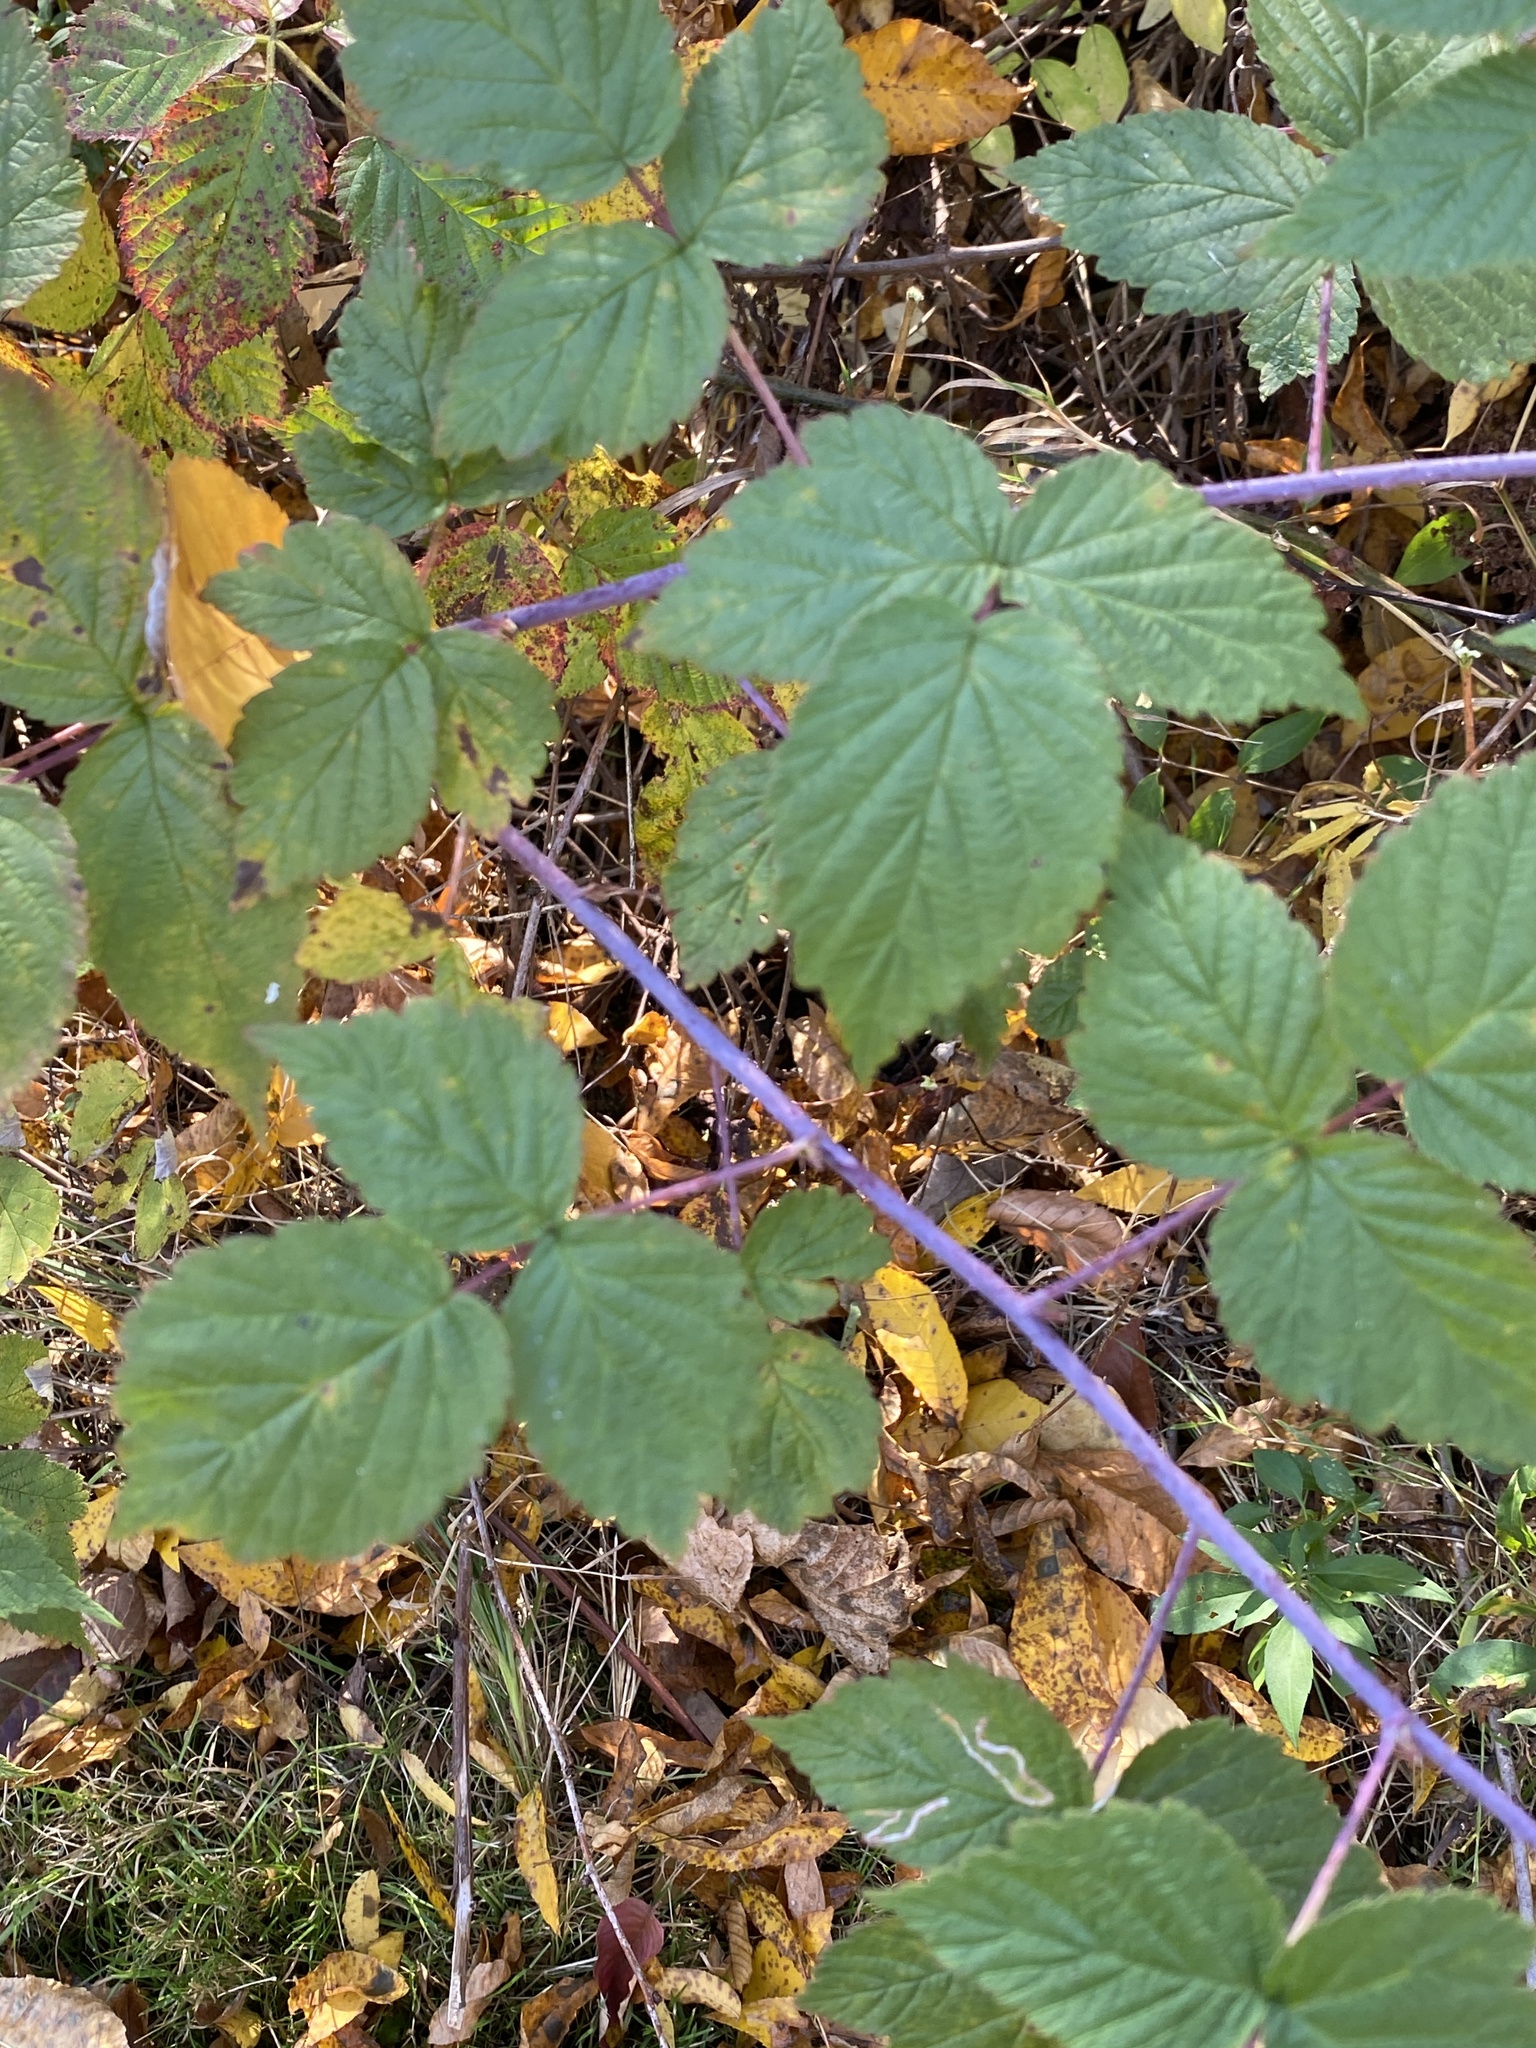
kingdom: Plantae
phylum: Tracheophyta
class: Magnoliopsida
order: Rosales
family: Rosaceae
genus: Rubus
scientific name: Rubus occidentalis
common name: Black raspberry
